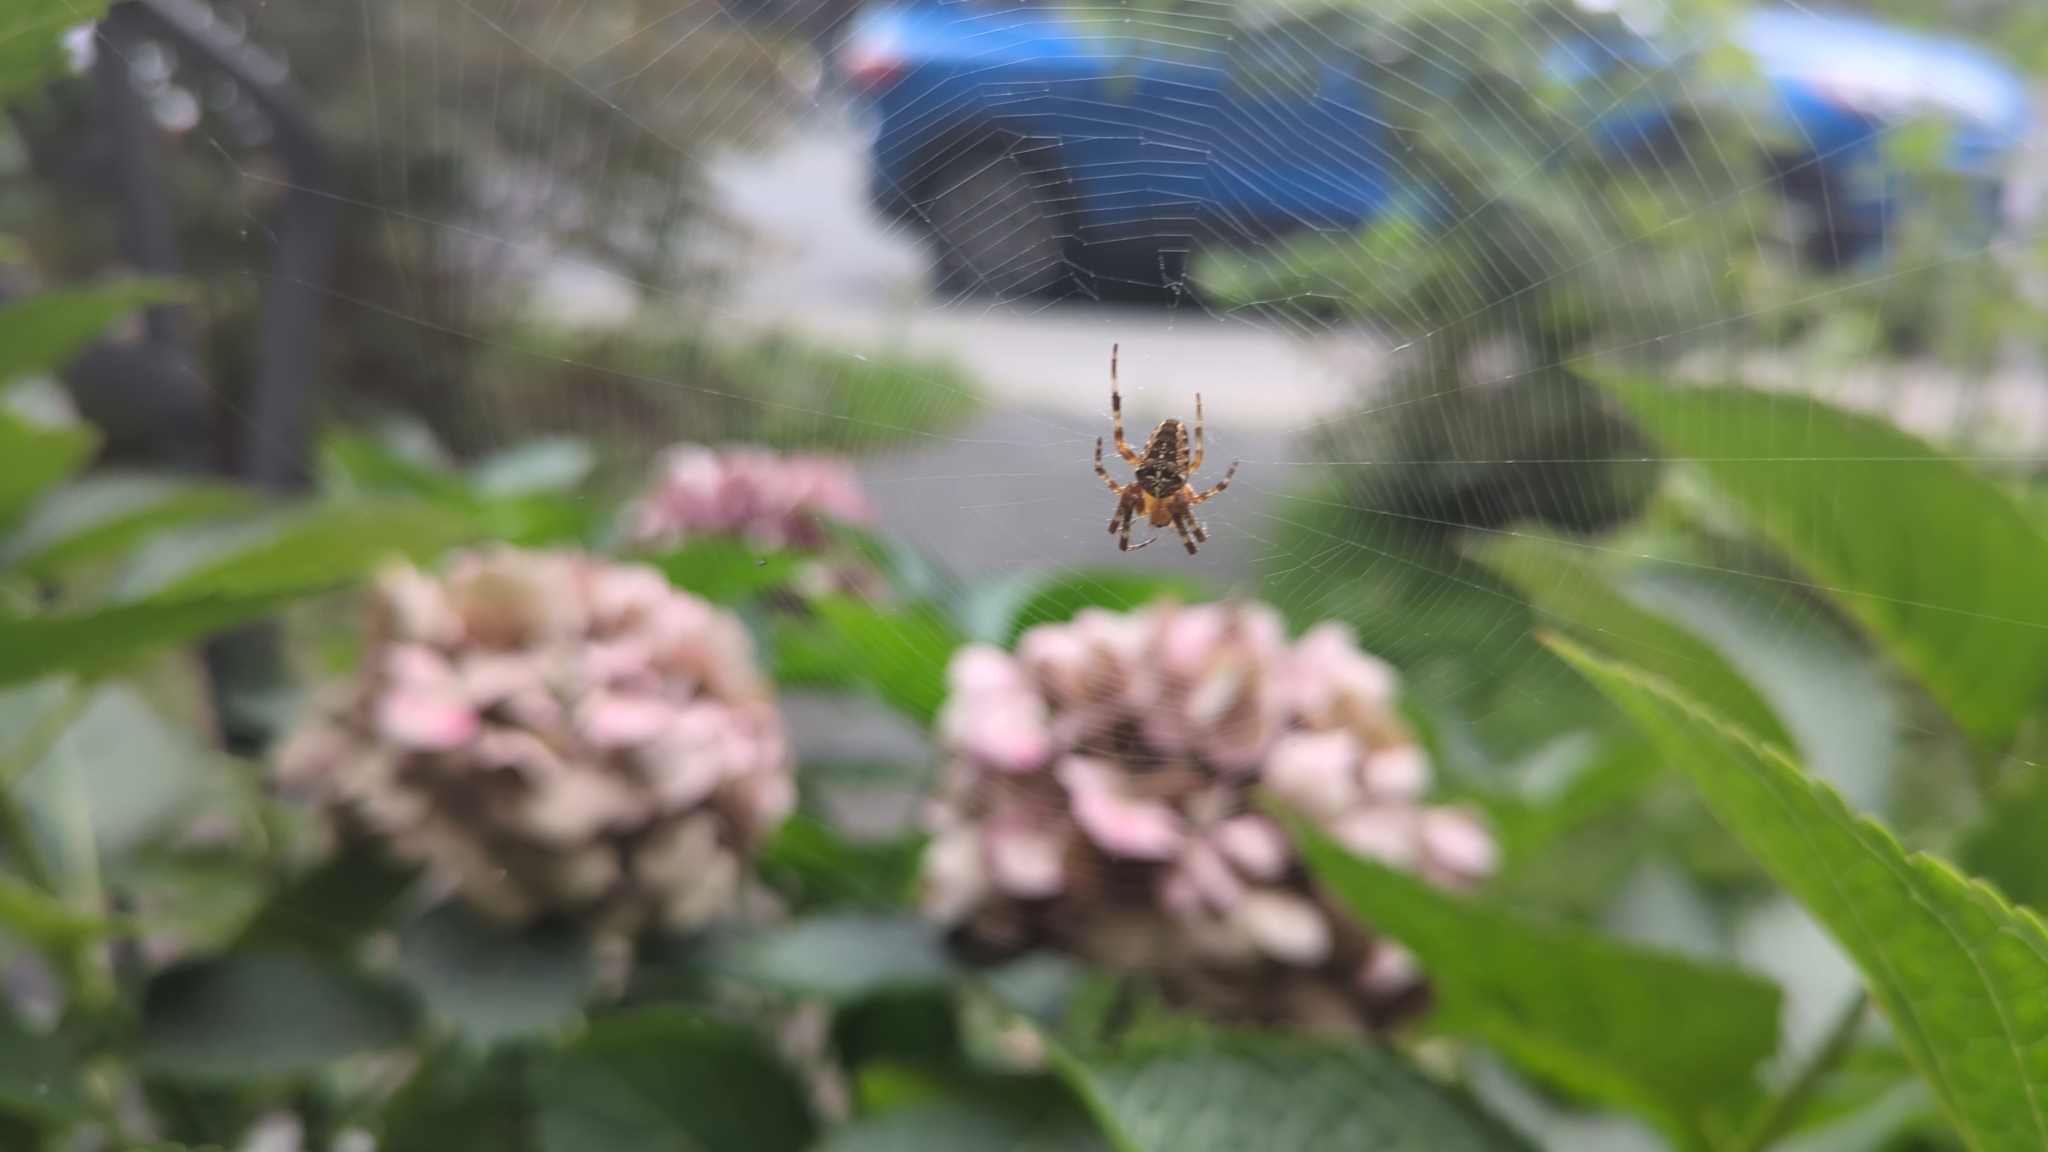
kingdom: Animalia
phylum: Arthropoda
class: Arachnida
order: Araneae
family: Araneidae
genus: Araneus
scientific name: Araneus diadematus
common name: Cross orbweaver
